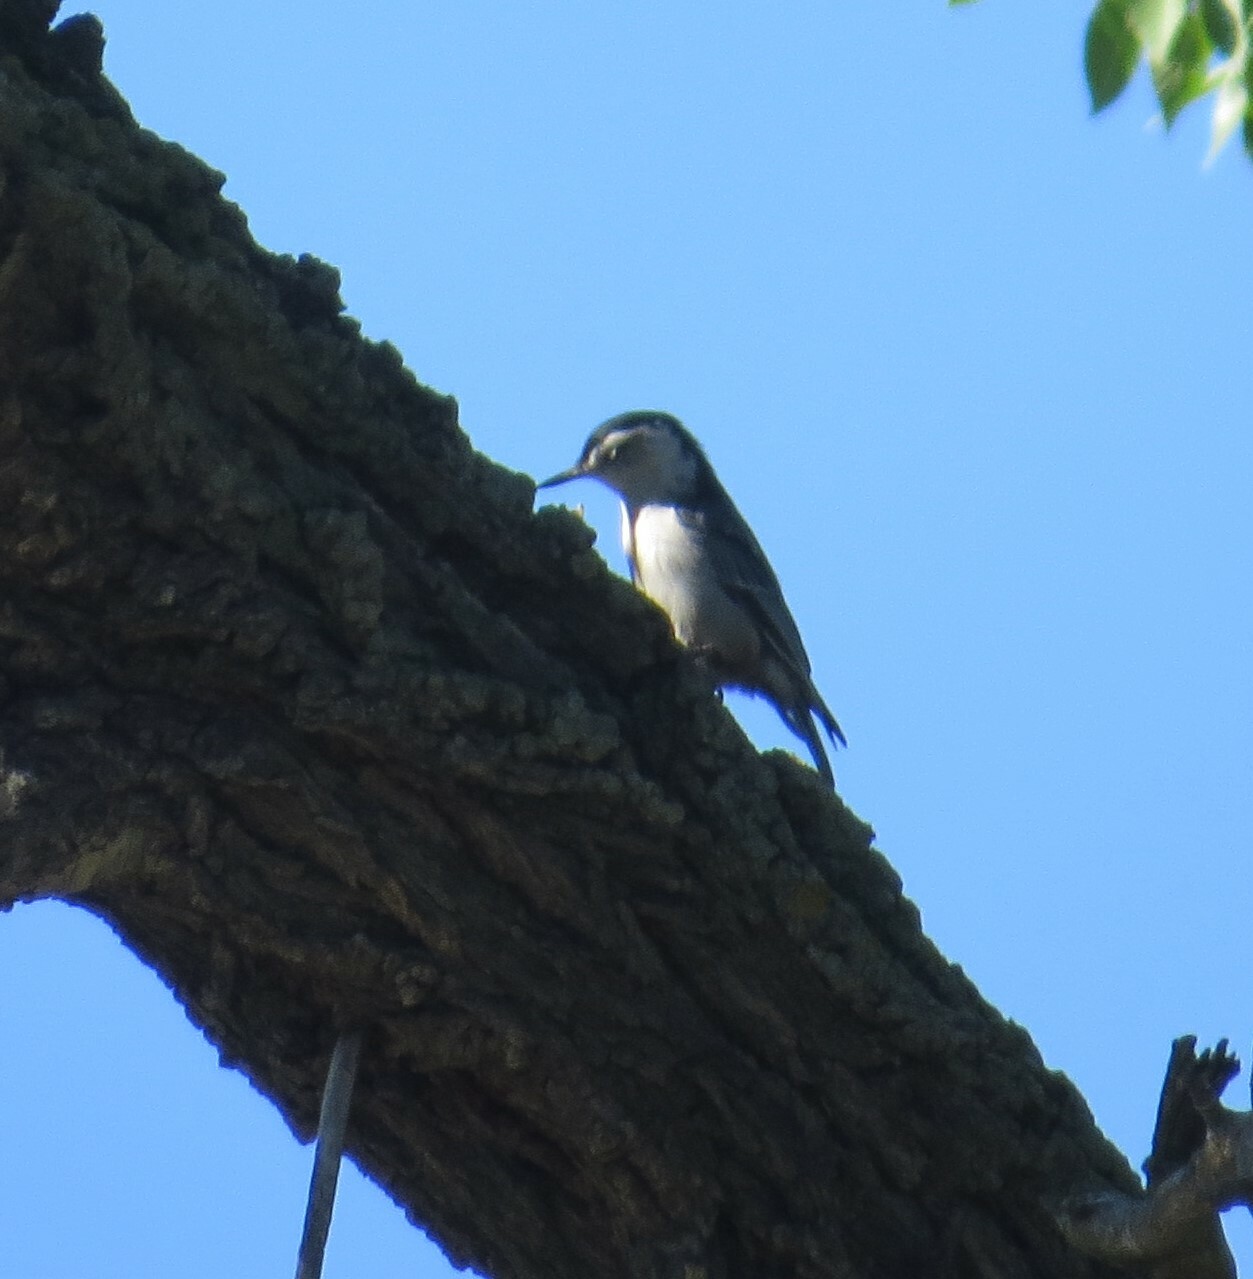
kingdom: Animalia
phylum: Chordata
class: Aves
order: Passeriformes
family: Sittidae
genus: Sitta
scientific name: Sitta carolinensis
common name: White-breasted nuthatch
